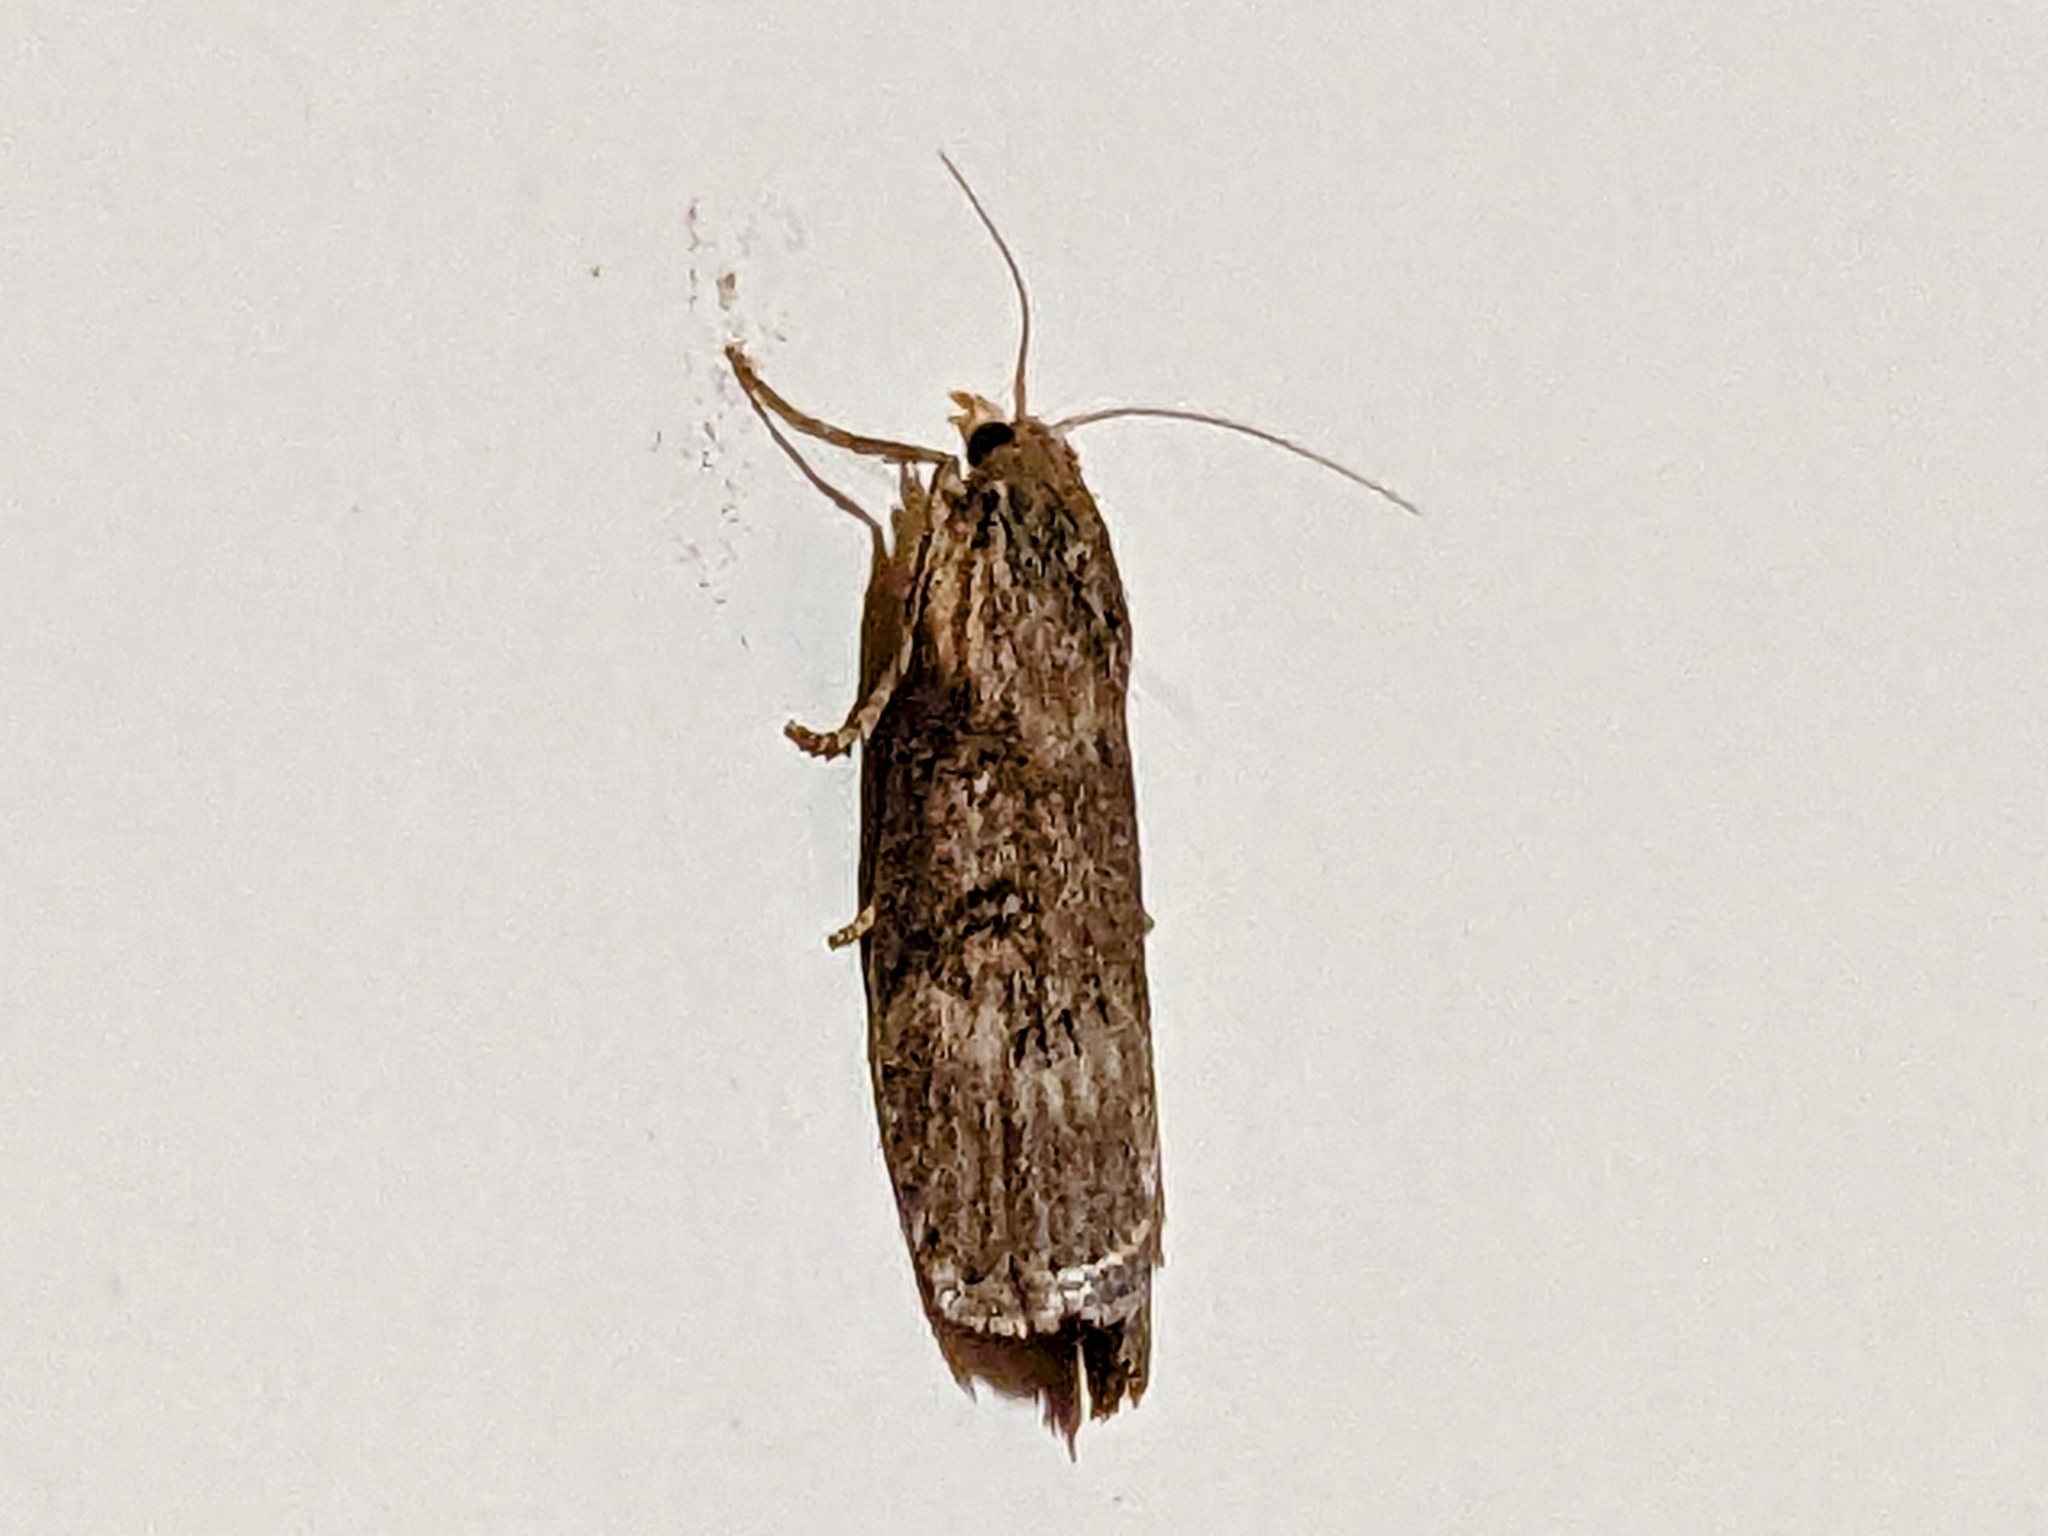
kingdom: Animalia
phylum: Arthropoda
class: Insecta
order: Lepidoptera
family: Pyralidae
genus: Lamoria
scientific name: Lamoria anella
